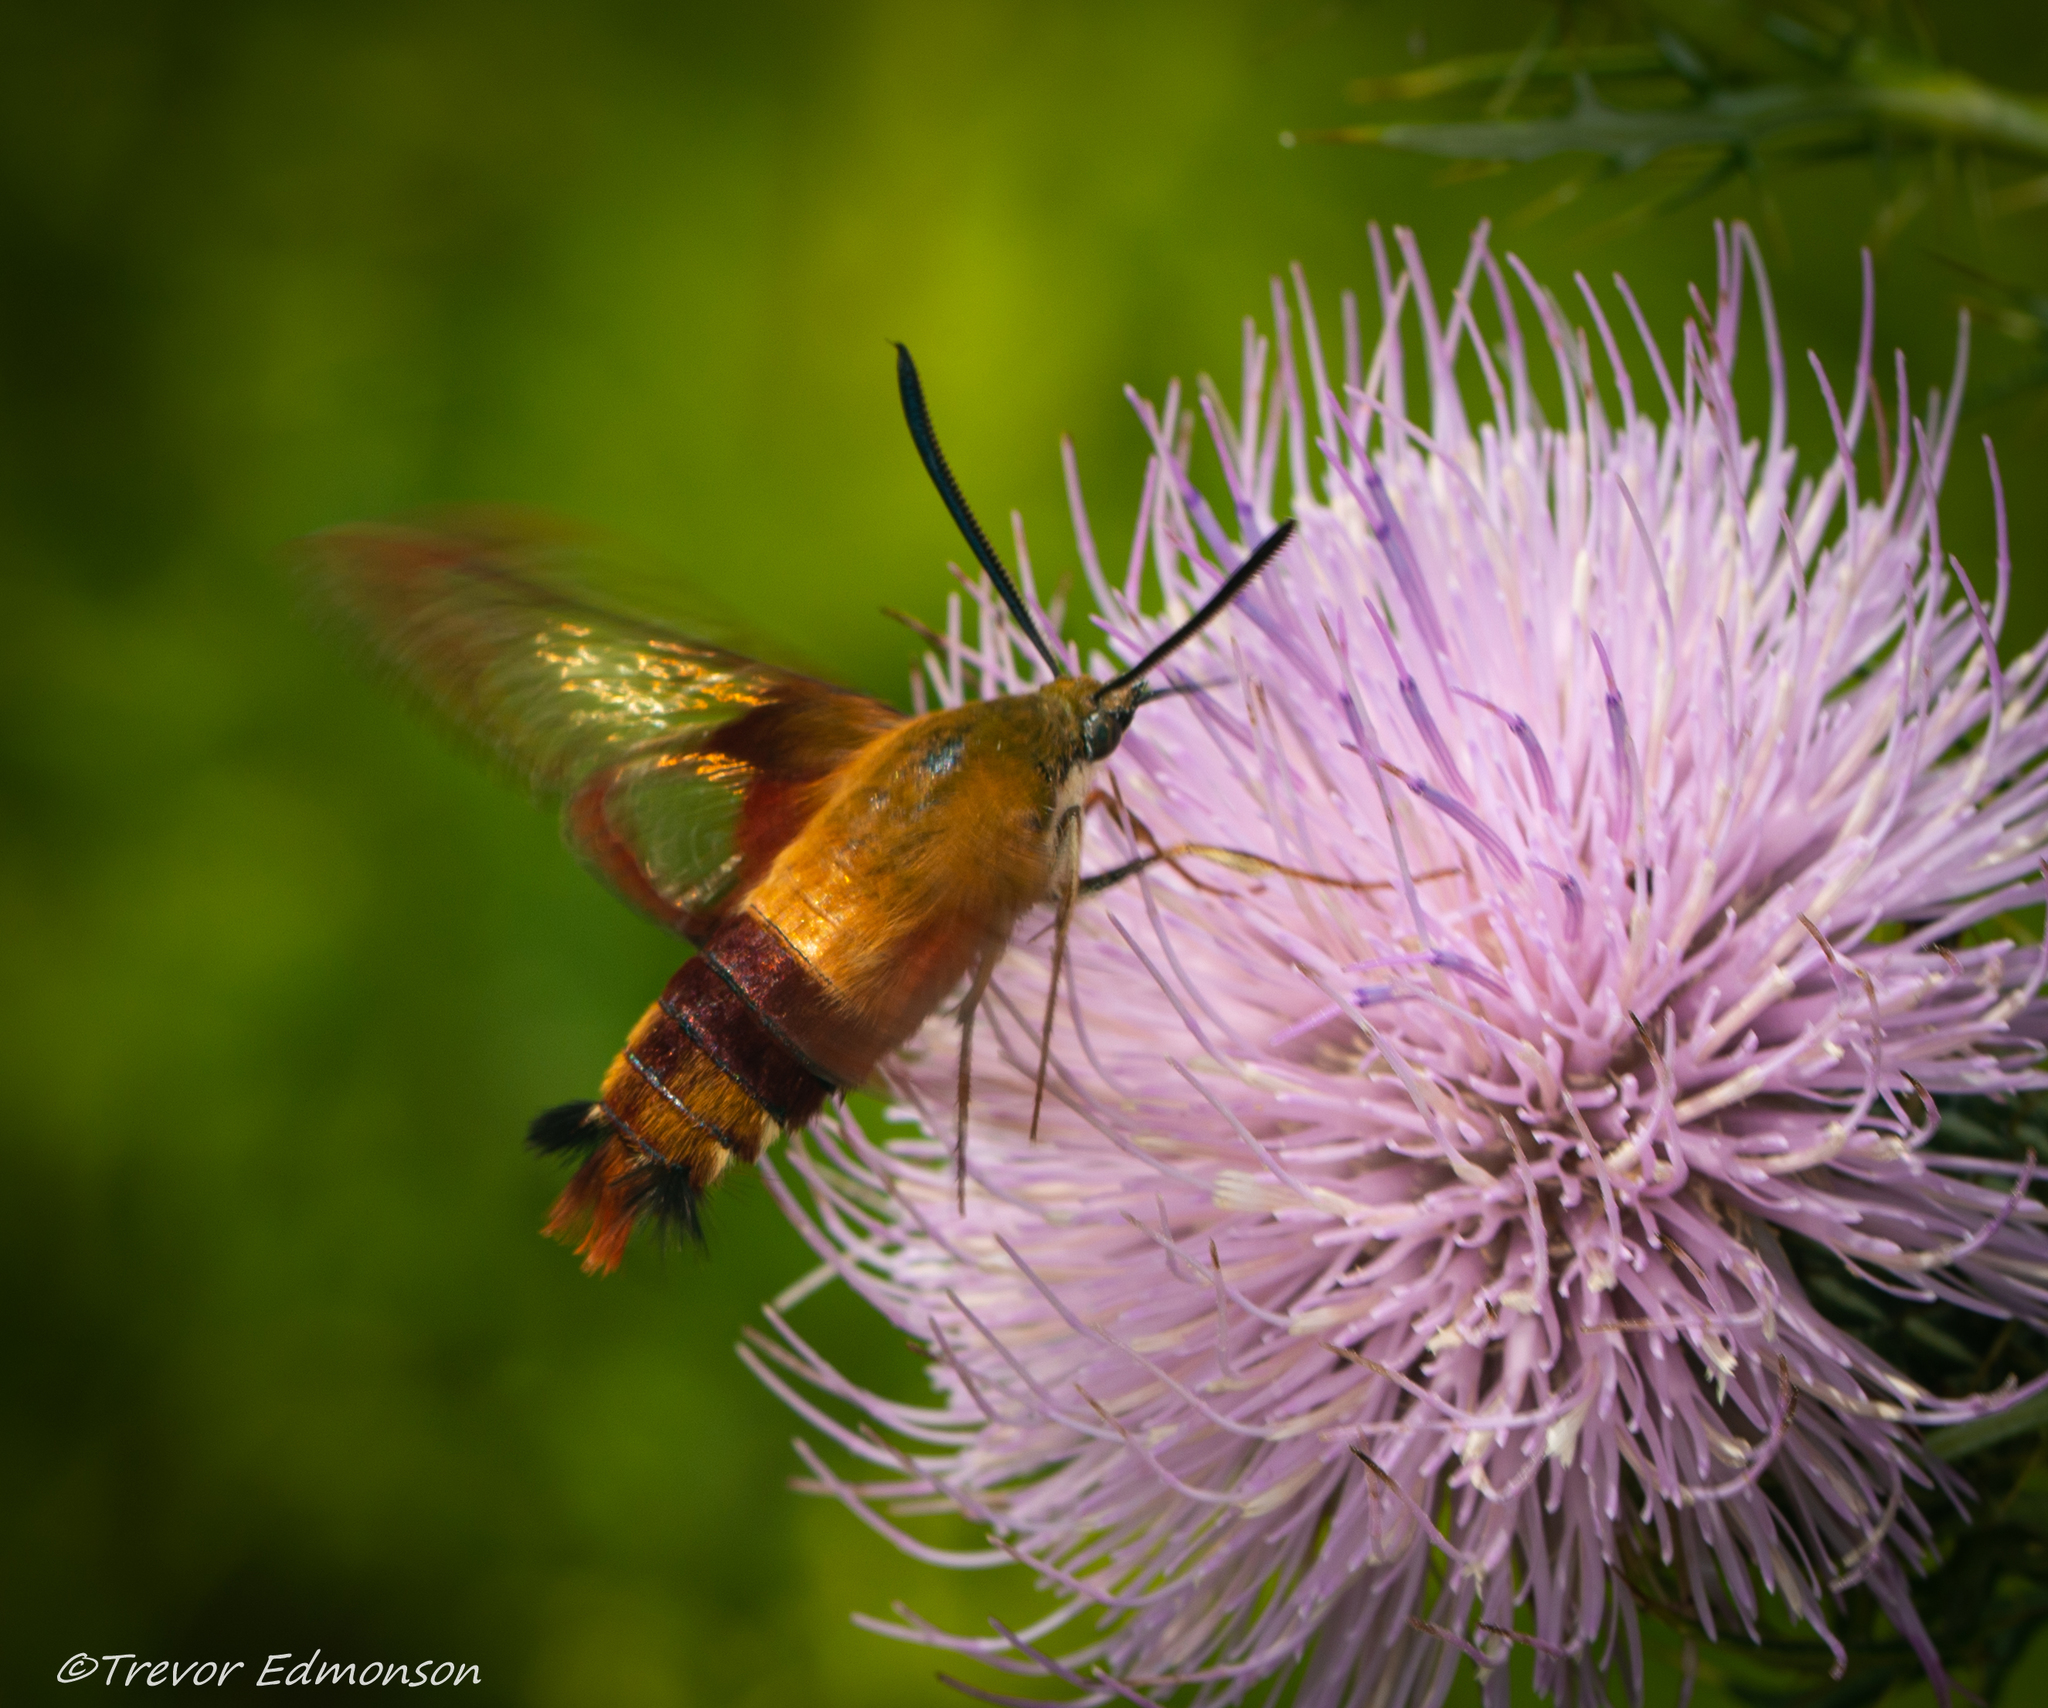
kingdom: Animalia
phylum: Arthropoda
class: Insecta
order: Lepidoptera
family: Sphingidae
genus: Hemaris
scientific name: Hemaris thysbe
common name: Common clear-wing
